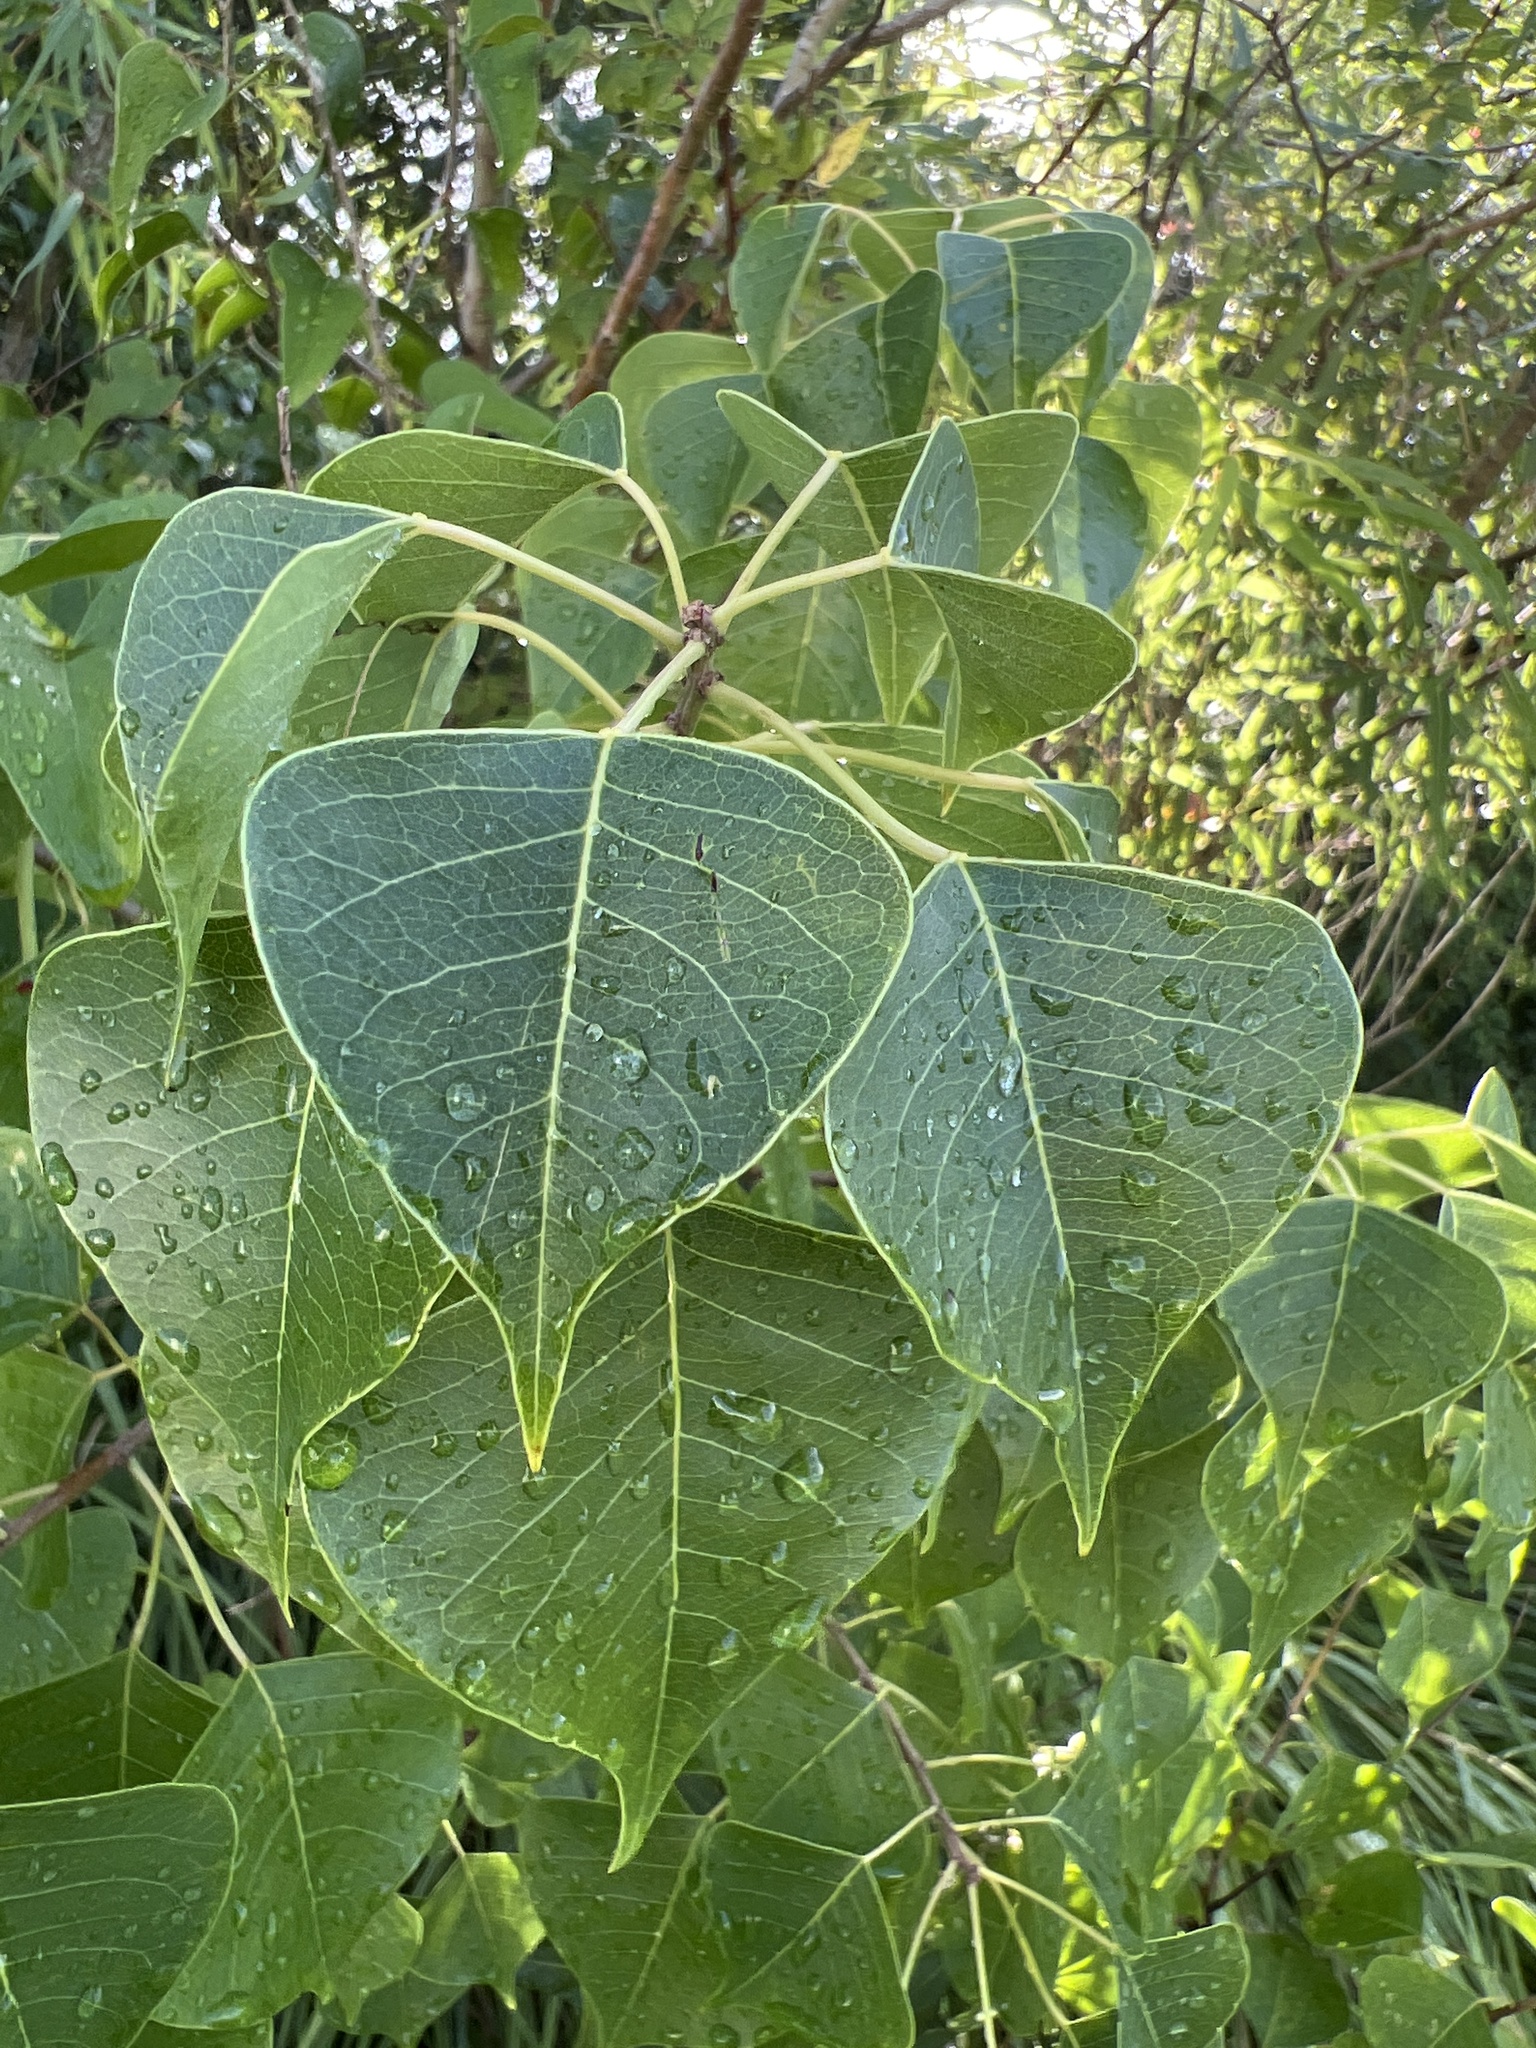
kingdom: Plantae
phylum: Tracheophyta
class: Magnoliopsida
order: Malpighiales
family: Euphorbiaceae
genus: Triadica
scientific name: Triadica sebifera
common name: Chinese tallow
